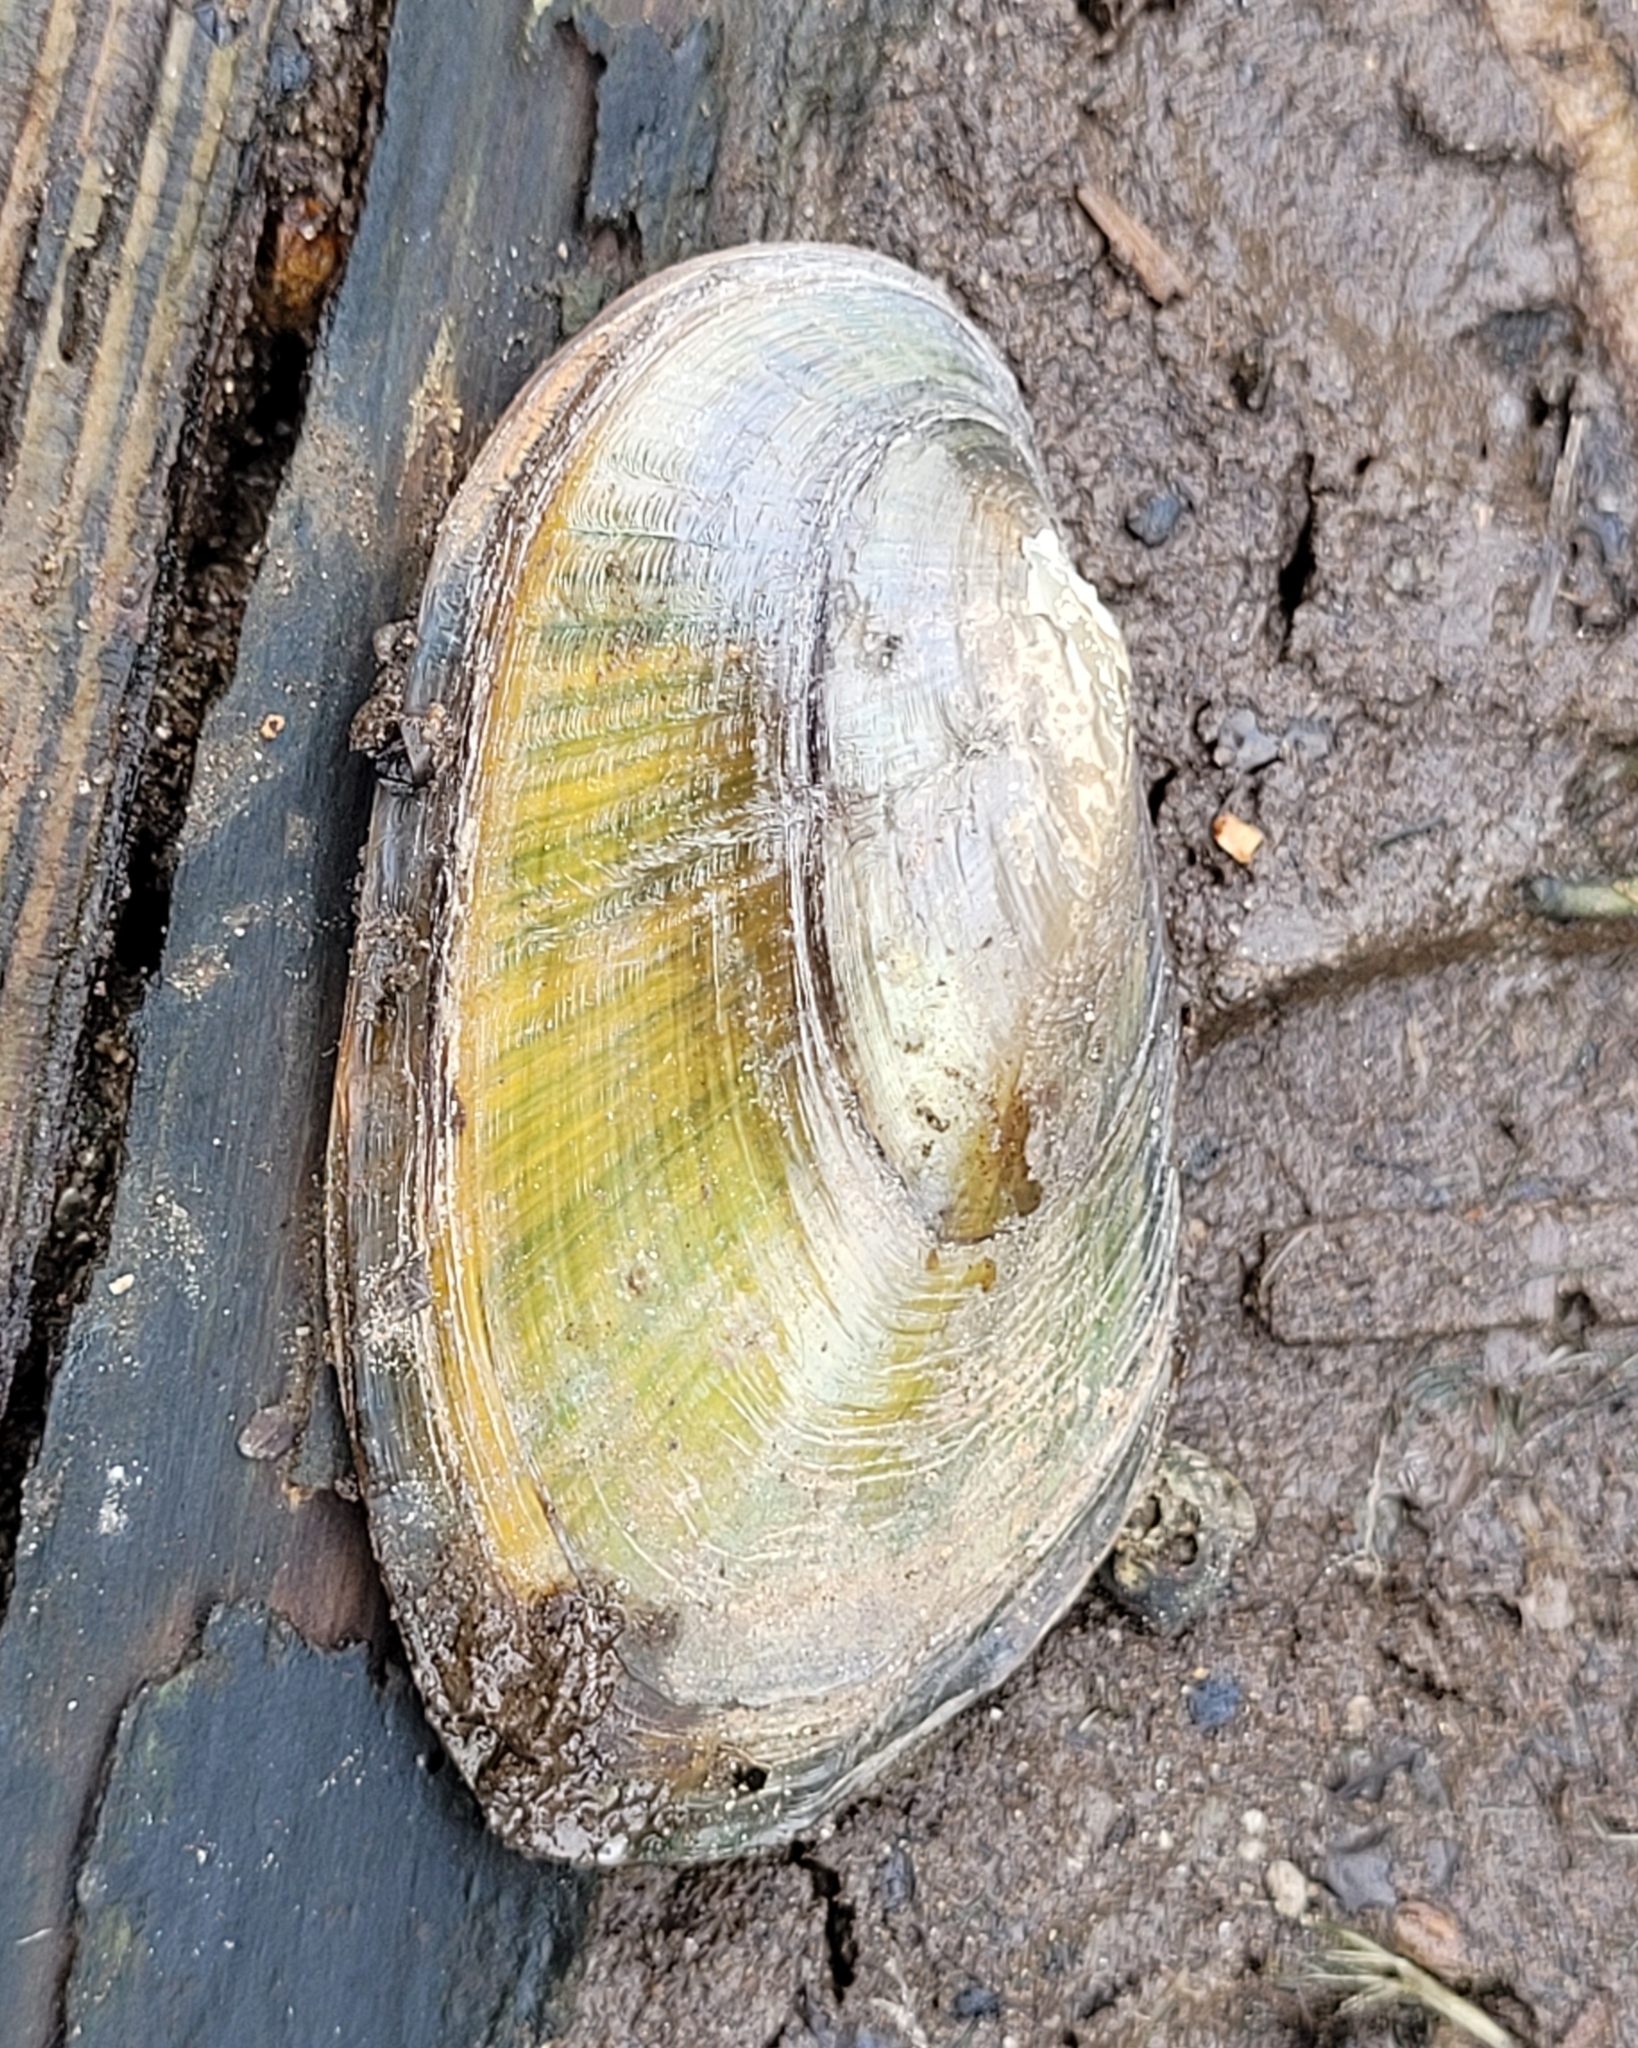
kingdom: Animalia
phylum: Mollusca
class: Bivalvia
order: Unionida
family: Unionidae
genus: Elliptio
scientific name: Elliptio complanata
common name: Eastern elliptio
